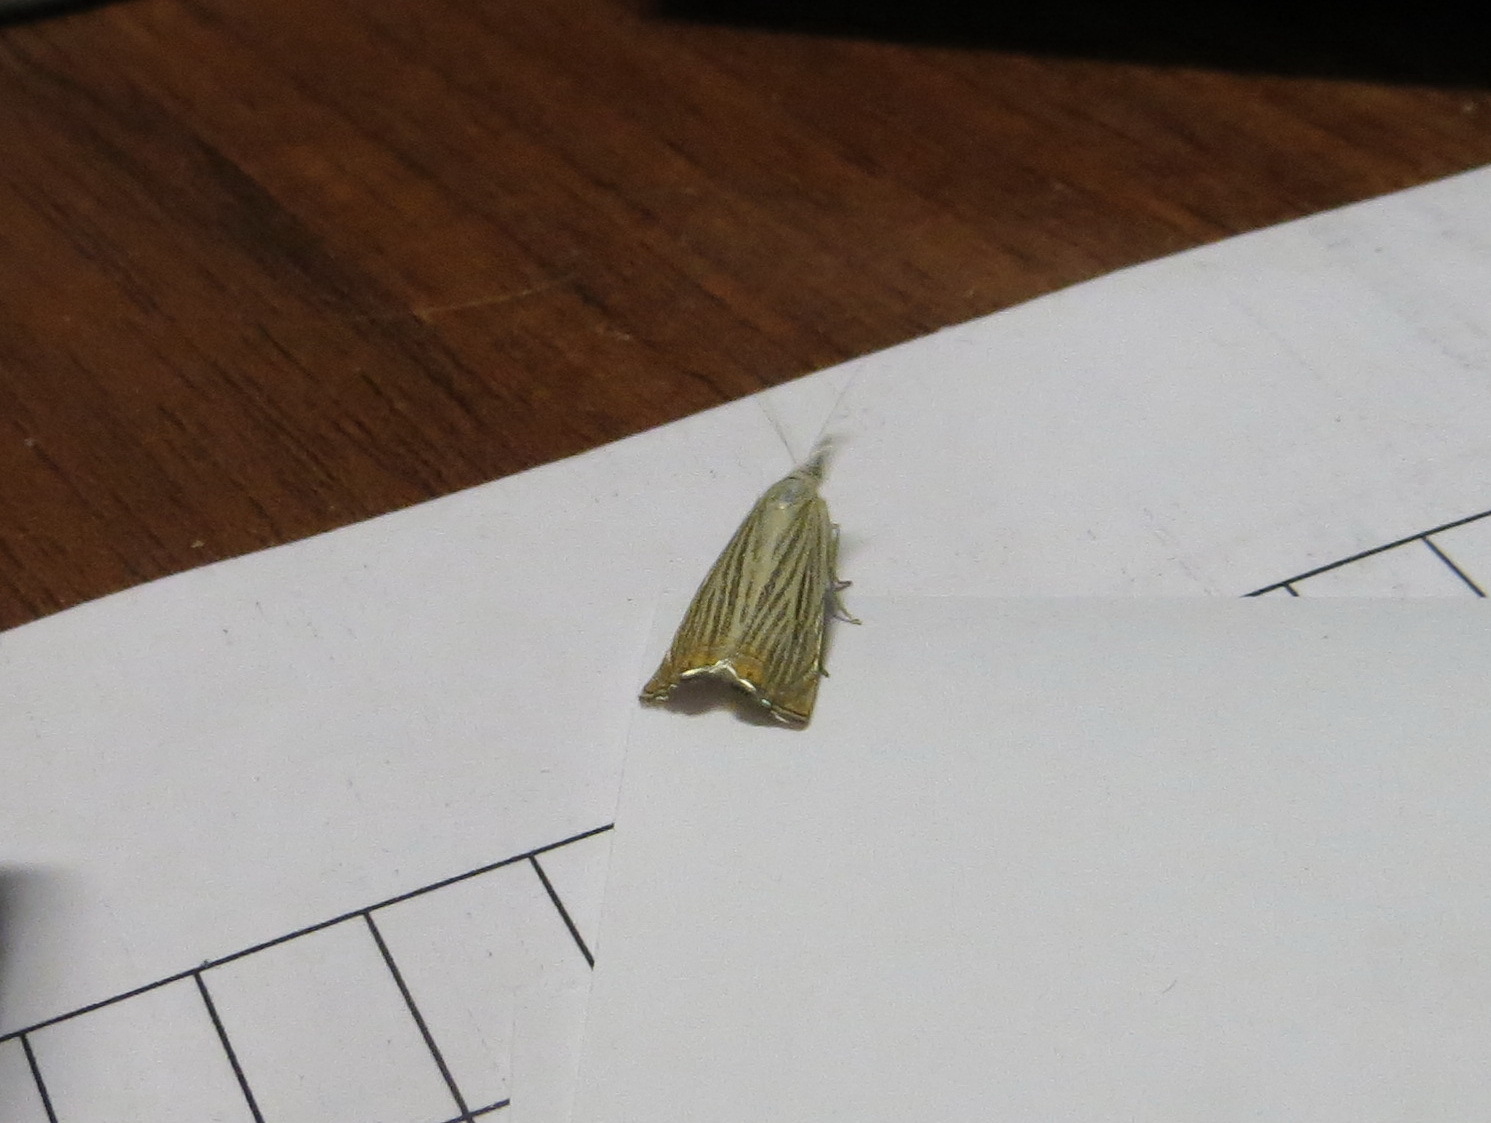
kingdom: Animalia
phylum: Arthropoda
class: Insecta
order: Lepidoptera
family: Crambidae
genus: Chrysoteuchia
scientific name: Chrysoteuchia culmella
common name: Garden grass-veneer
